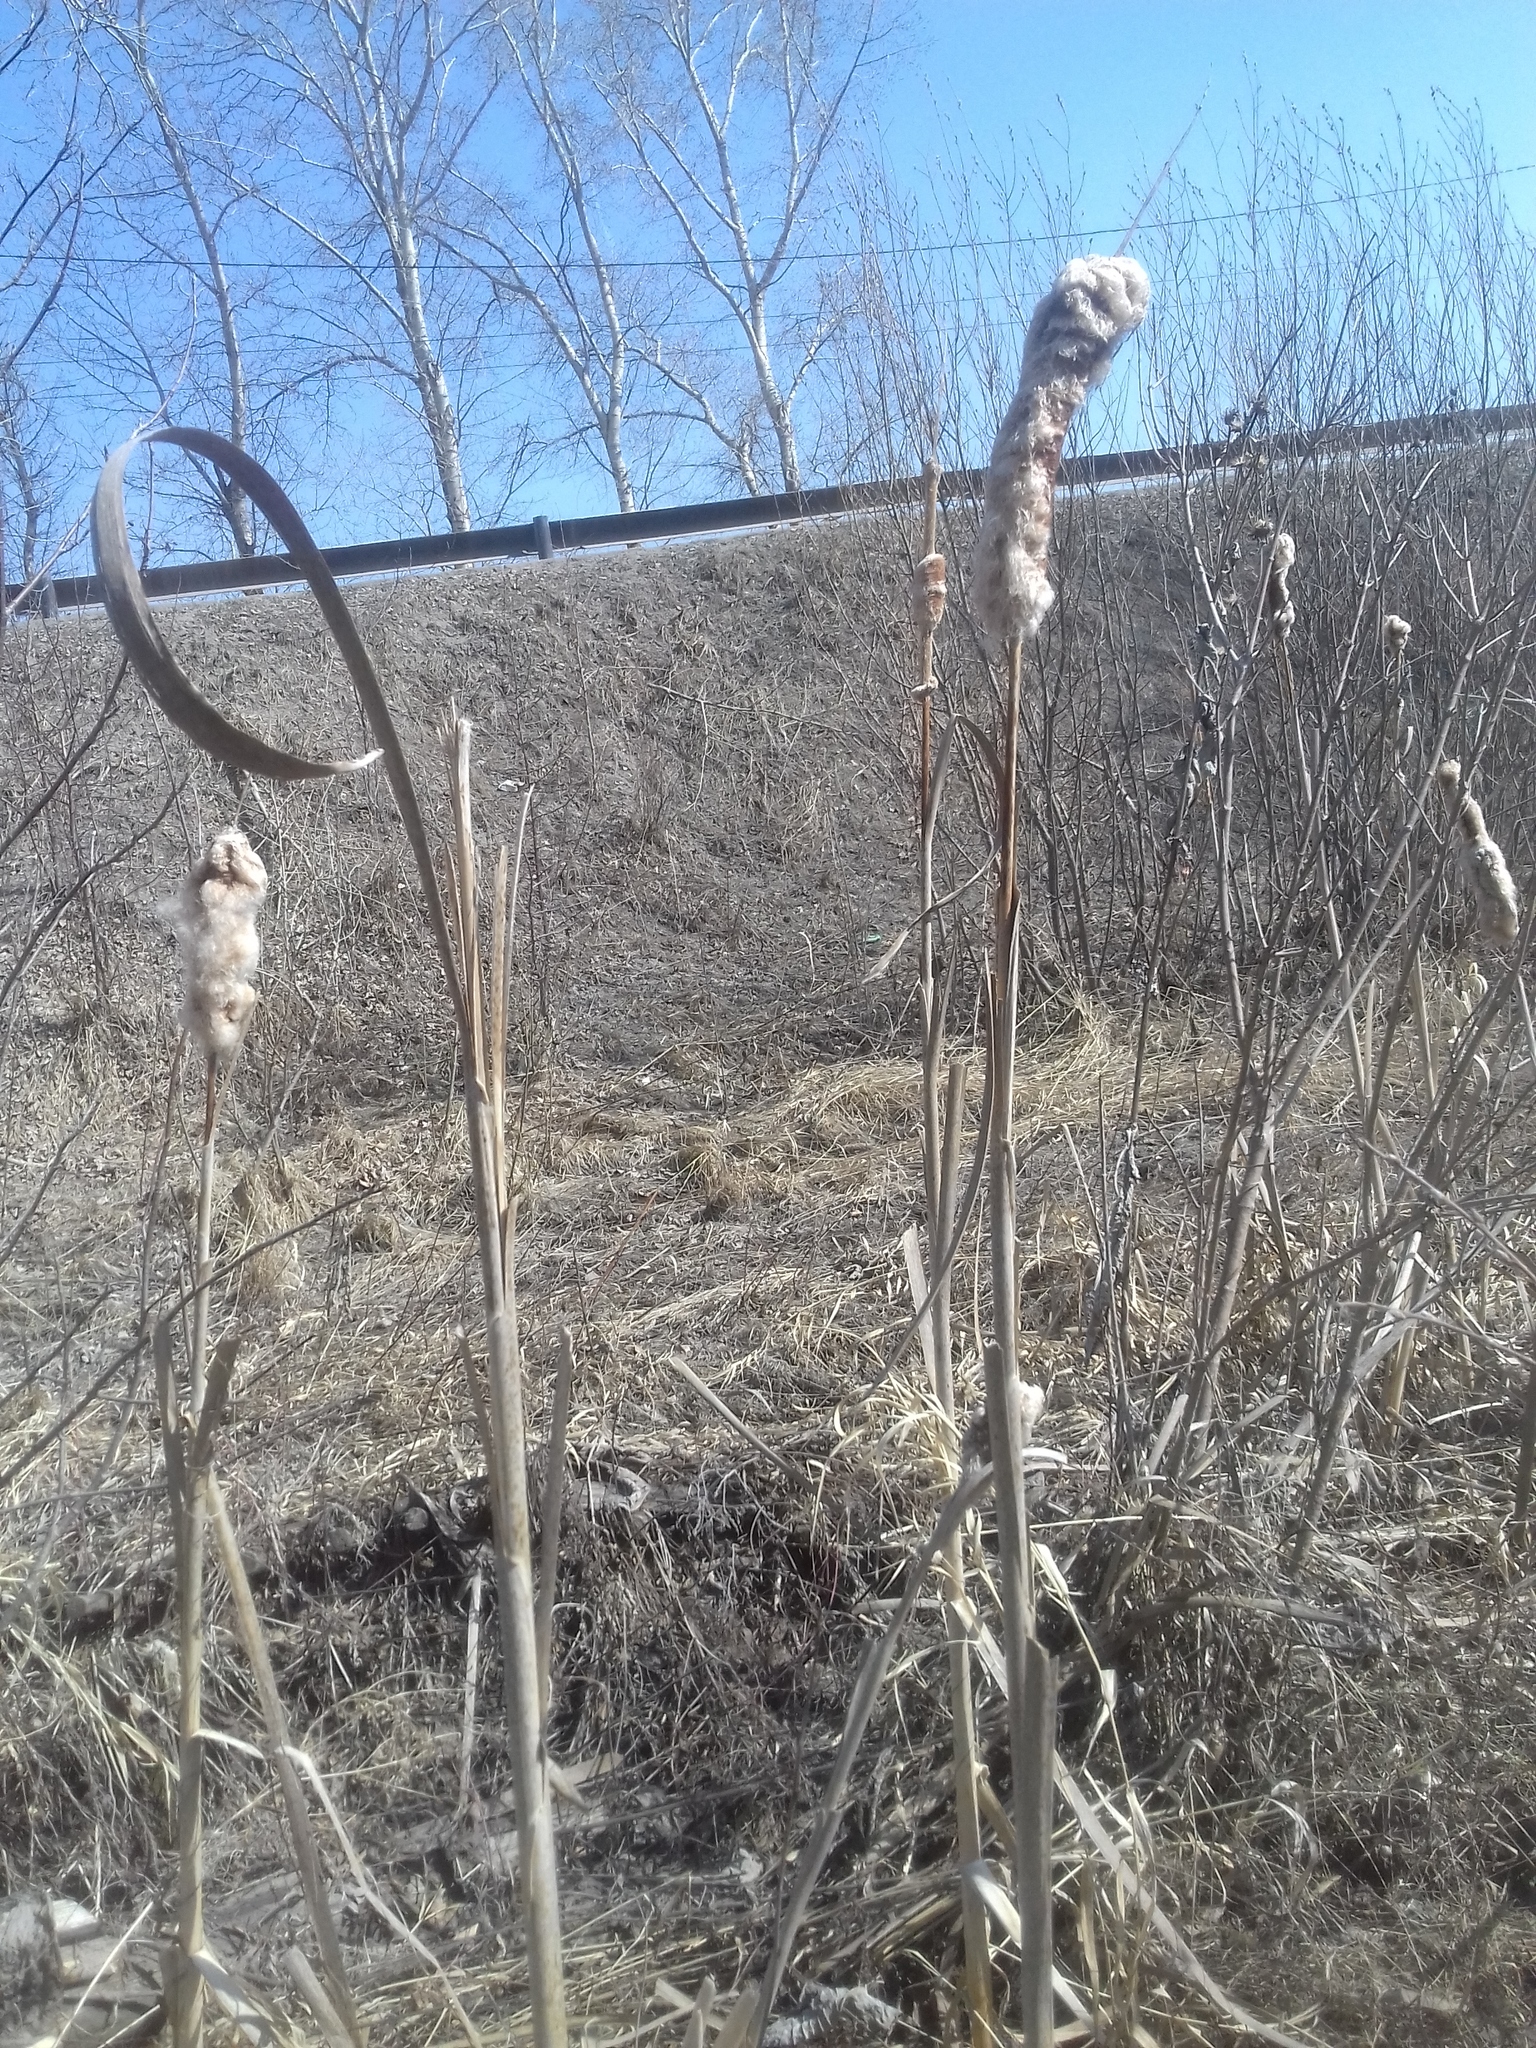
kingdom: Plantae
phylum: Tracheophyta
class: Liliopsida
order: Poales
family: Typhaceae
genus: Typha
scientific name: Typha latifolia
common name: Broadleaf cattail
